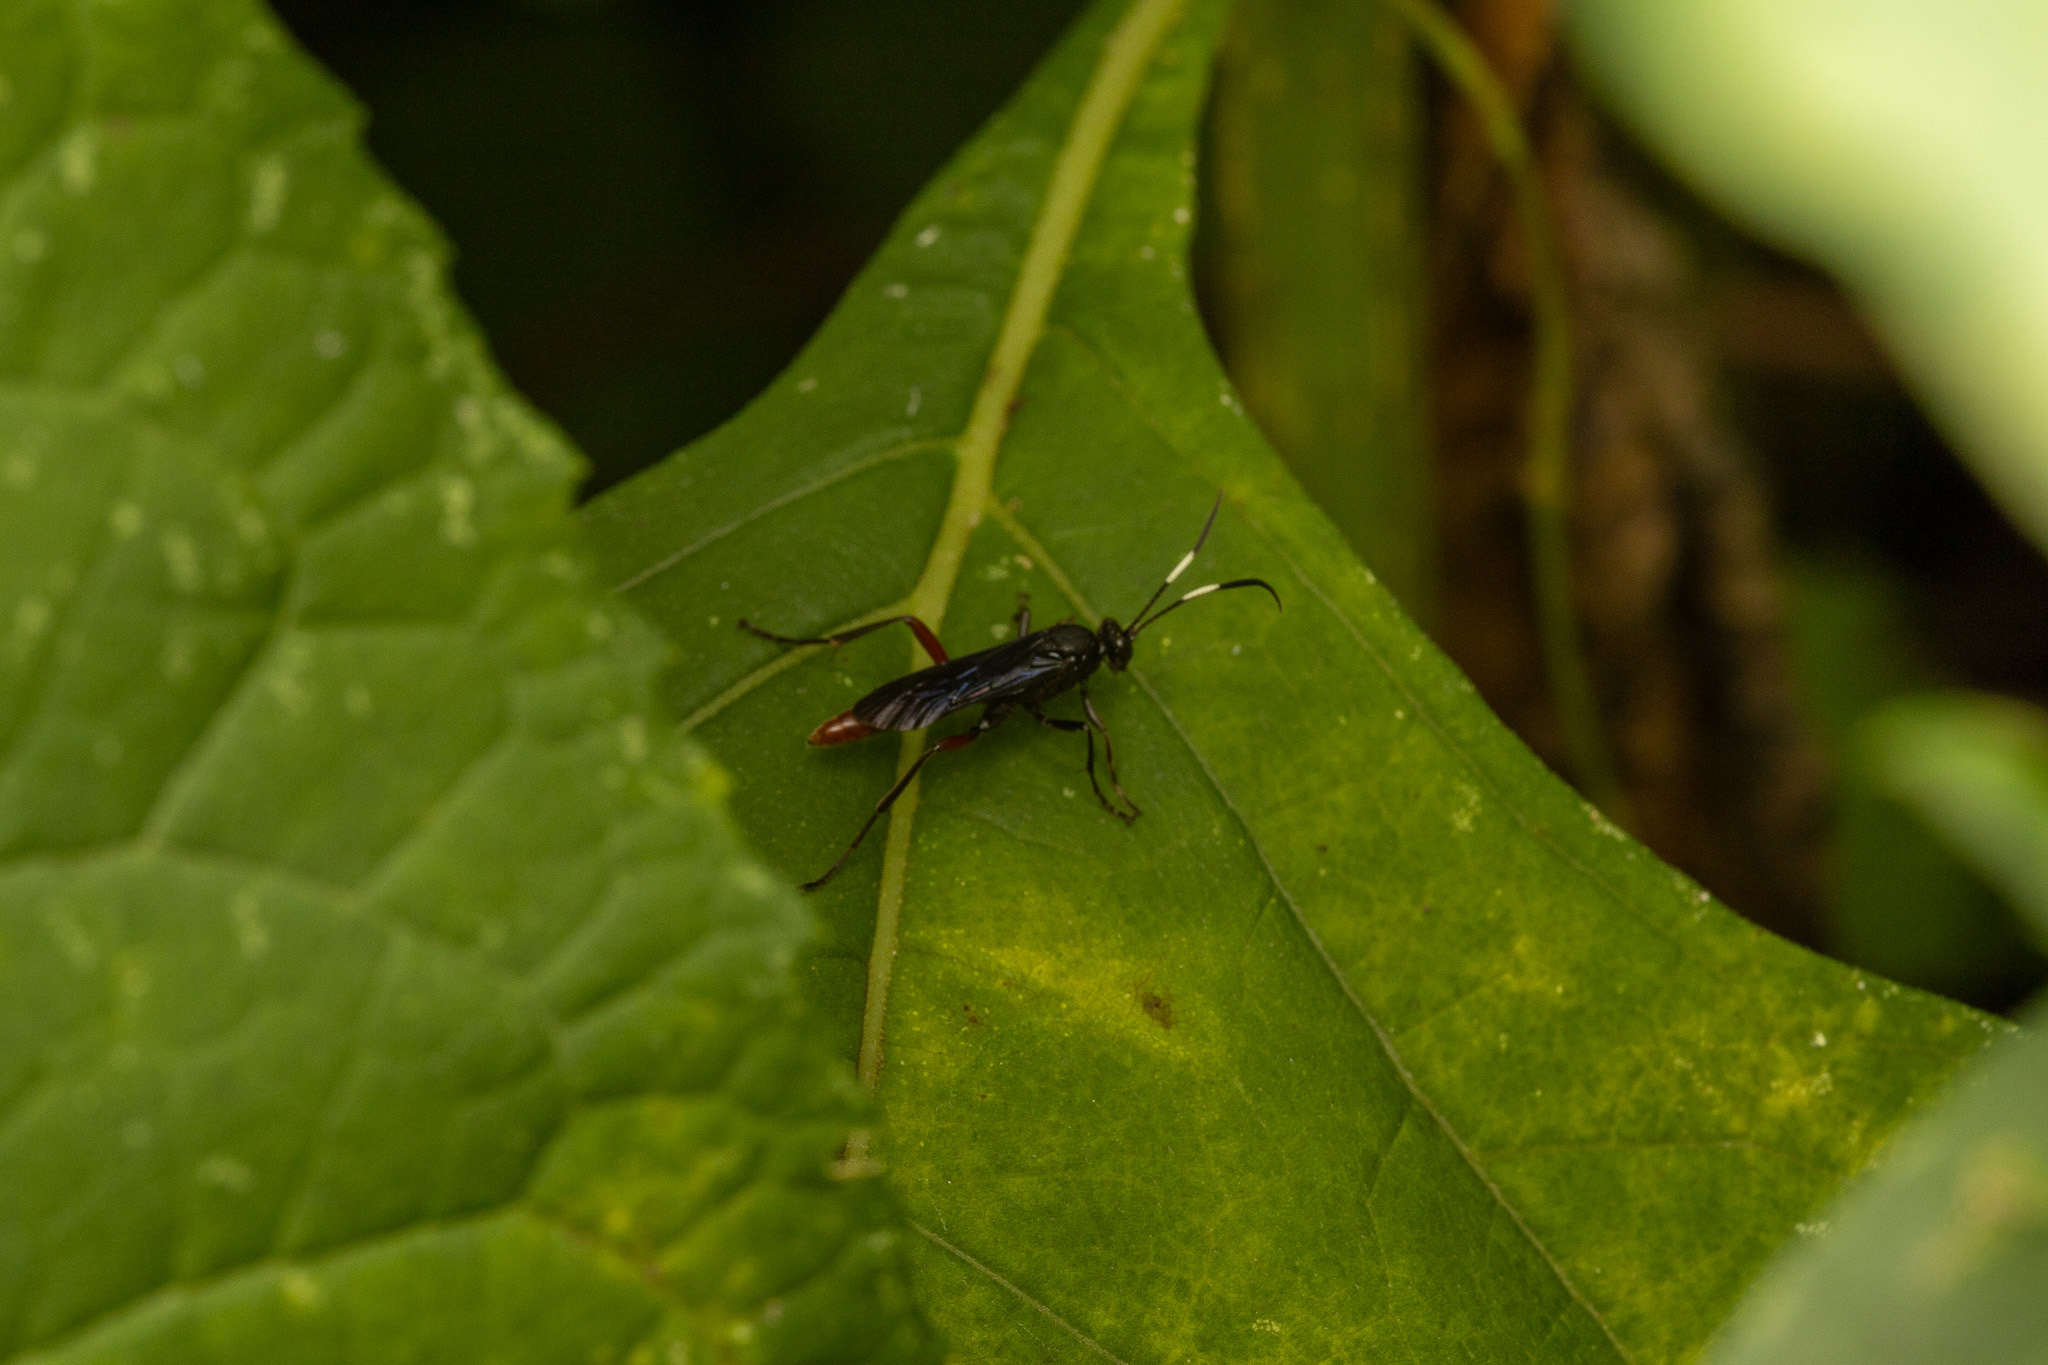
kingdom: Animalia
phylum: Arthropoda
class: Insecta
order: Hymenoptera
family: Ichneumonidae
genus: Limonethe
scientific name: Limonethe maurator
